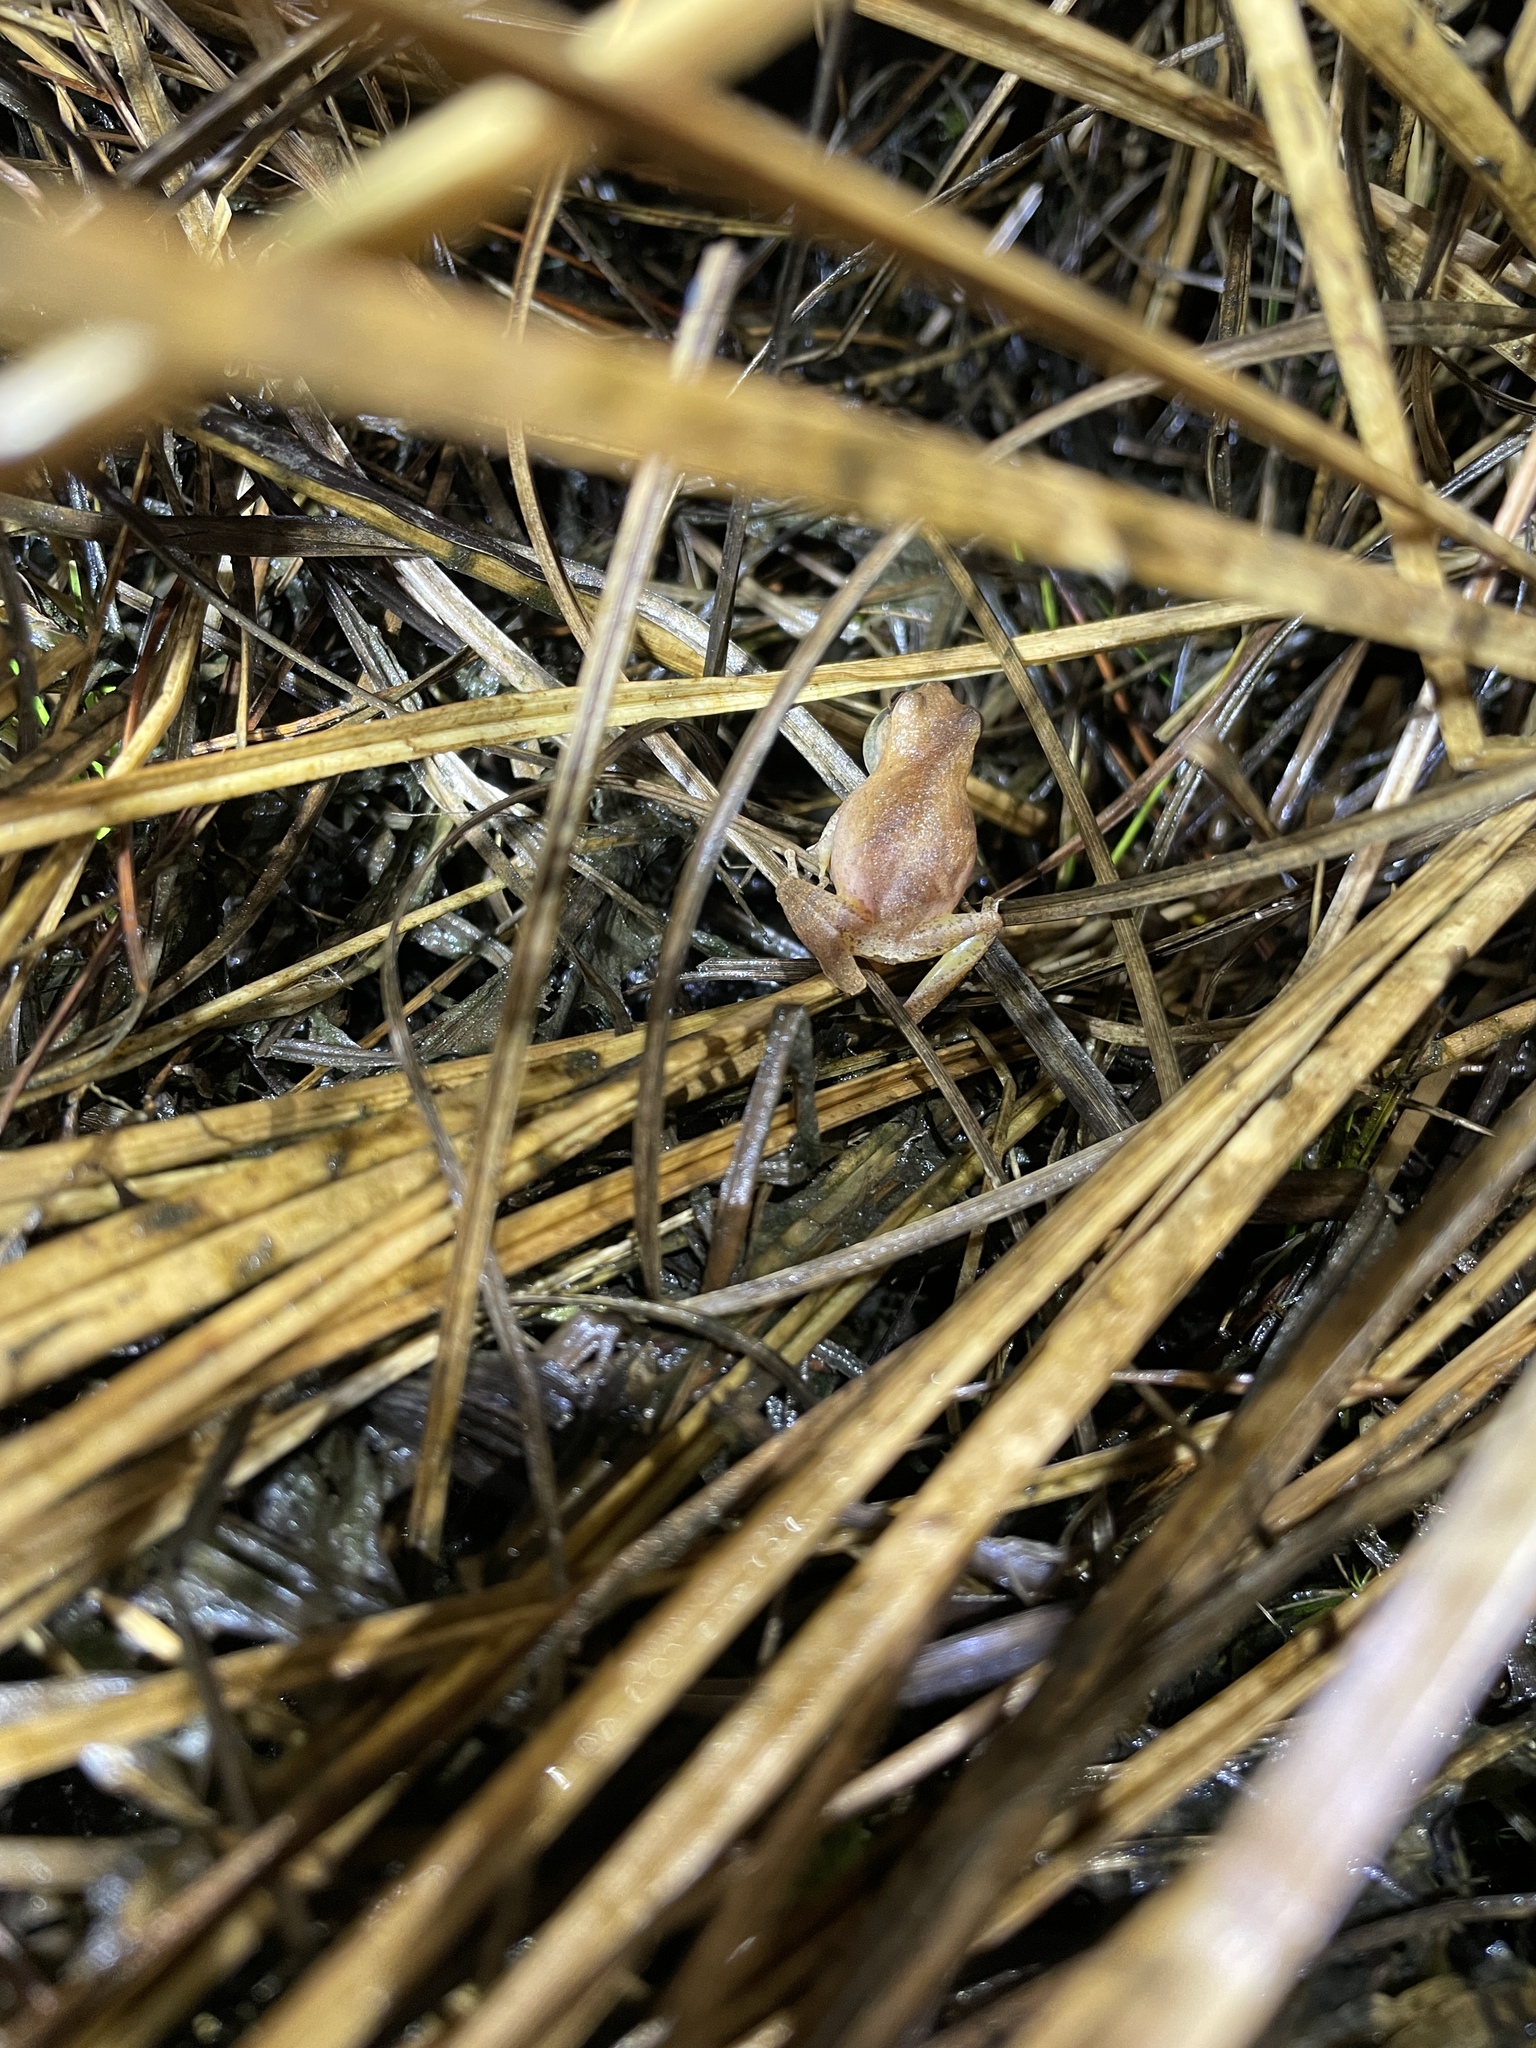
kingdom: Animalia
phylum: Chordata
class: Amphibia
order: Anura
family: Hylidae
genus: Pseudacris
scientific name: Pseudacris crucifer
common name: Spring peeper
